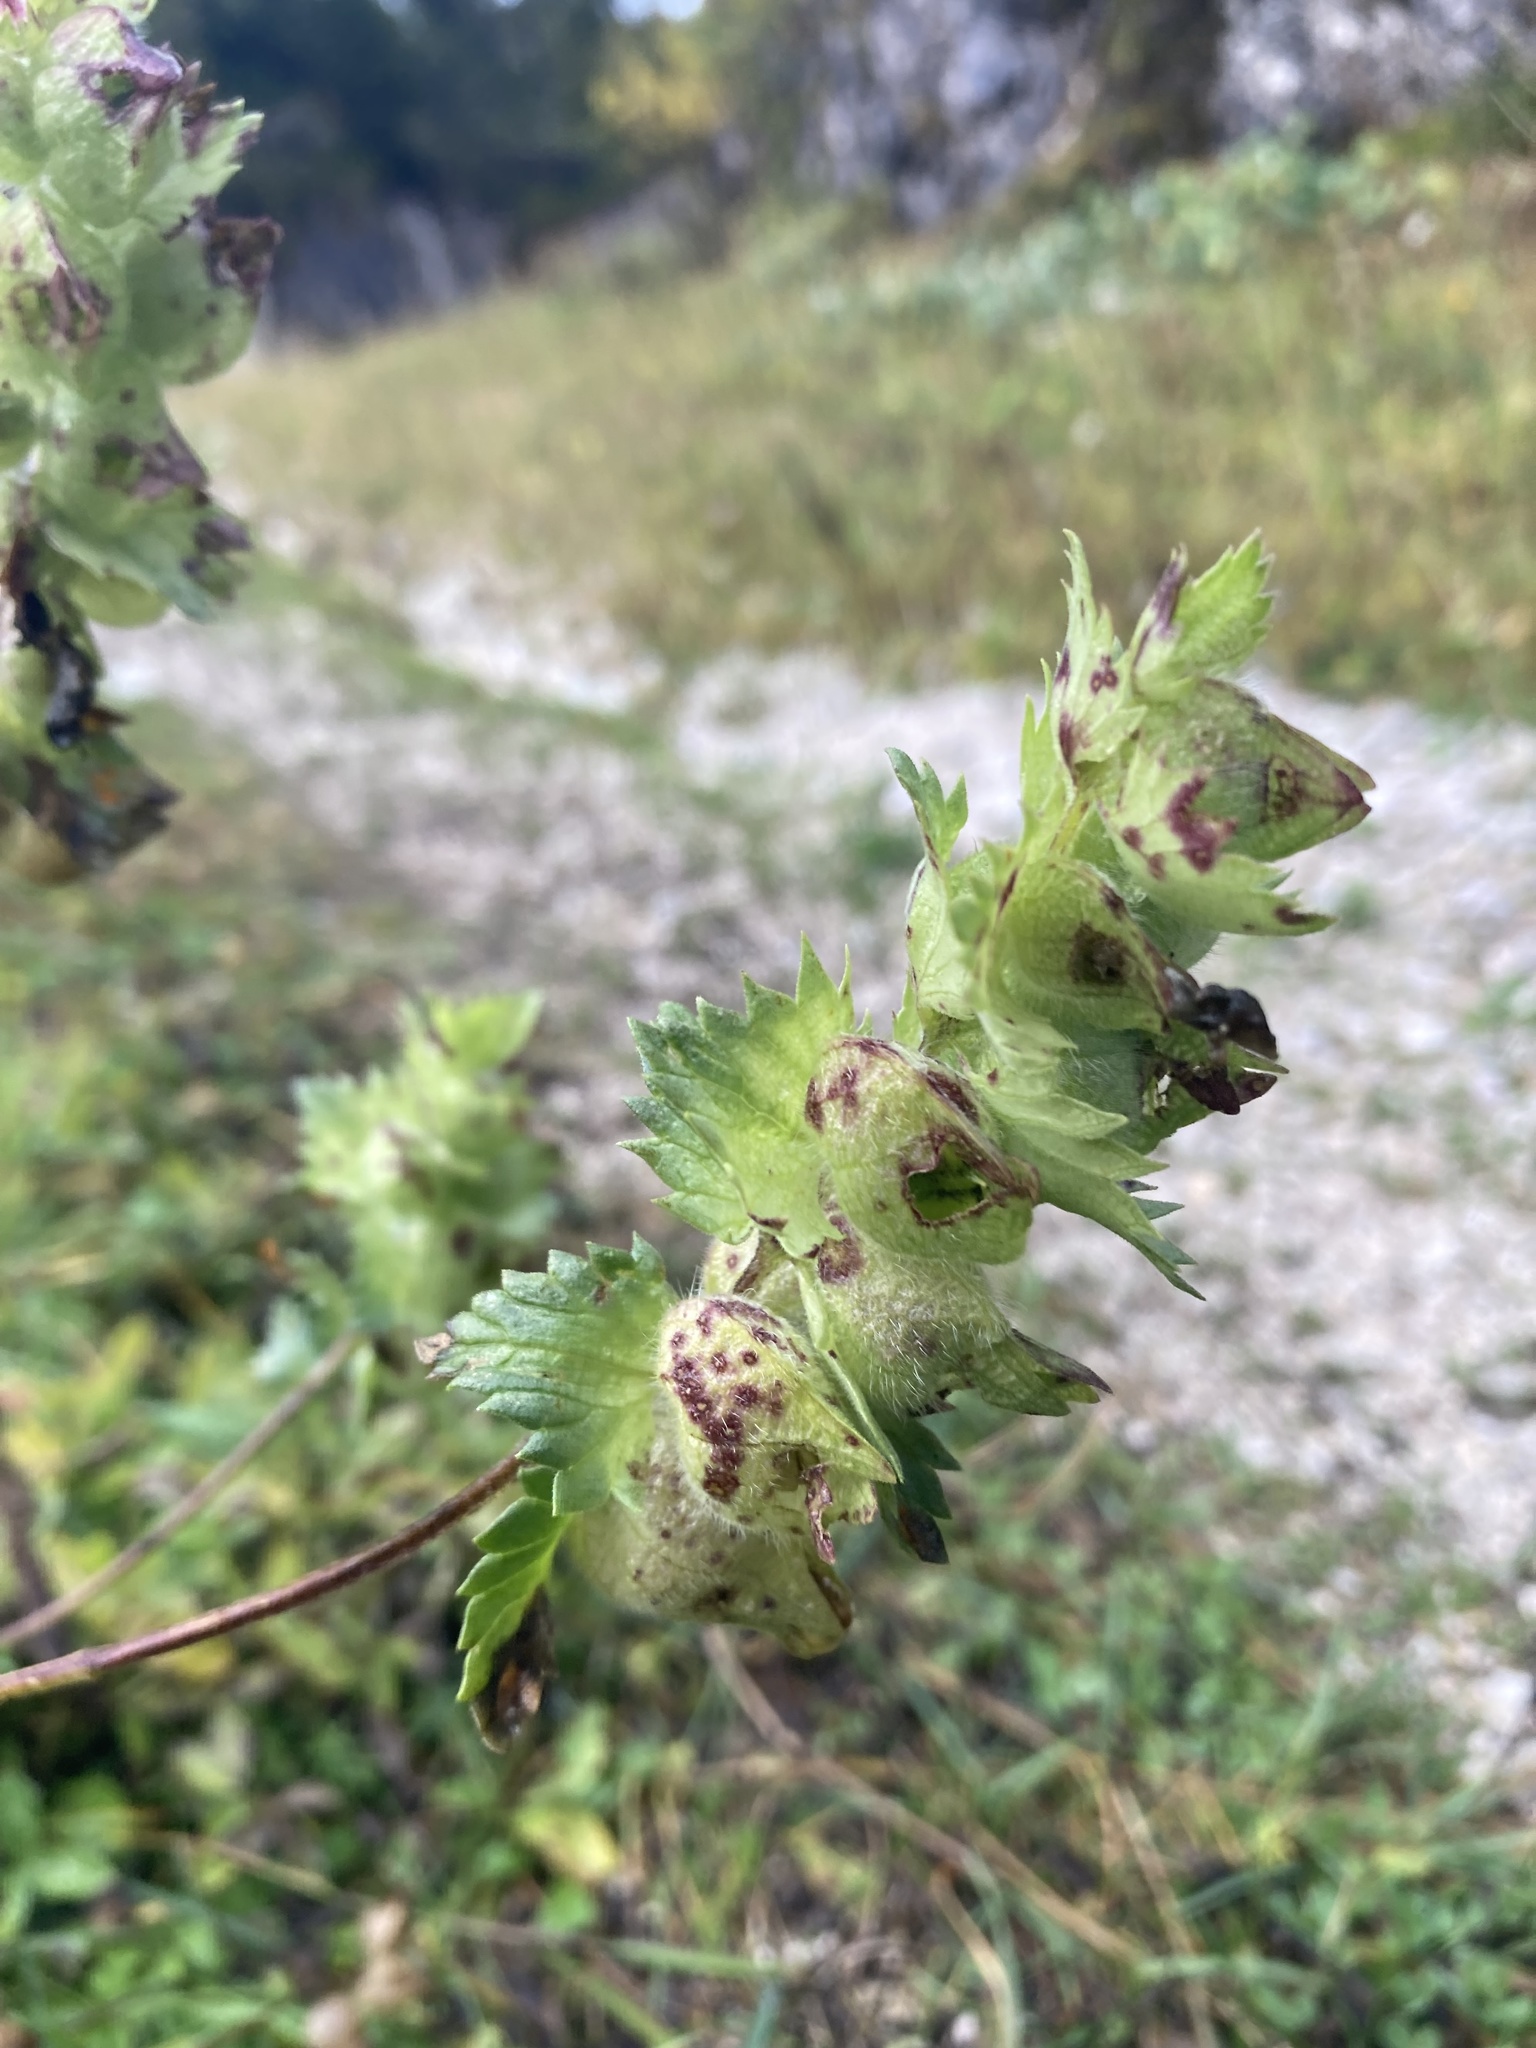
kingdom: Plantae
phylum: Tracheophyta
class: Magnoliopsida
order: Lamiales
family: Orobanchaceae
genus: Rhinanthus
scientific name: Rhinanthus alectorolophus
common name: Greater yellow-rattle
